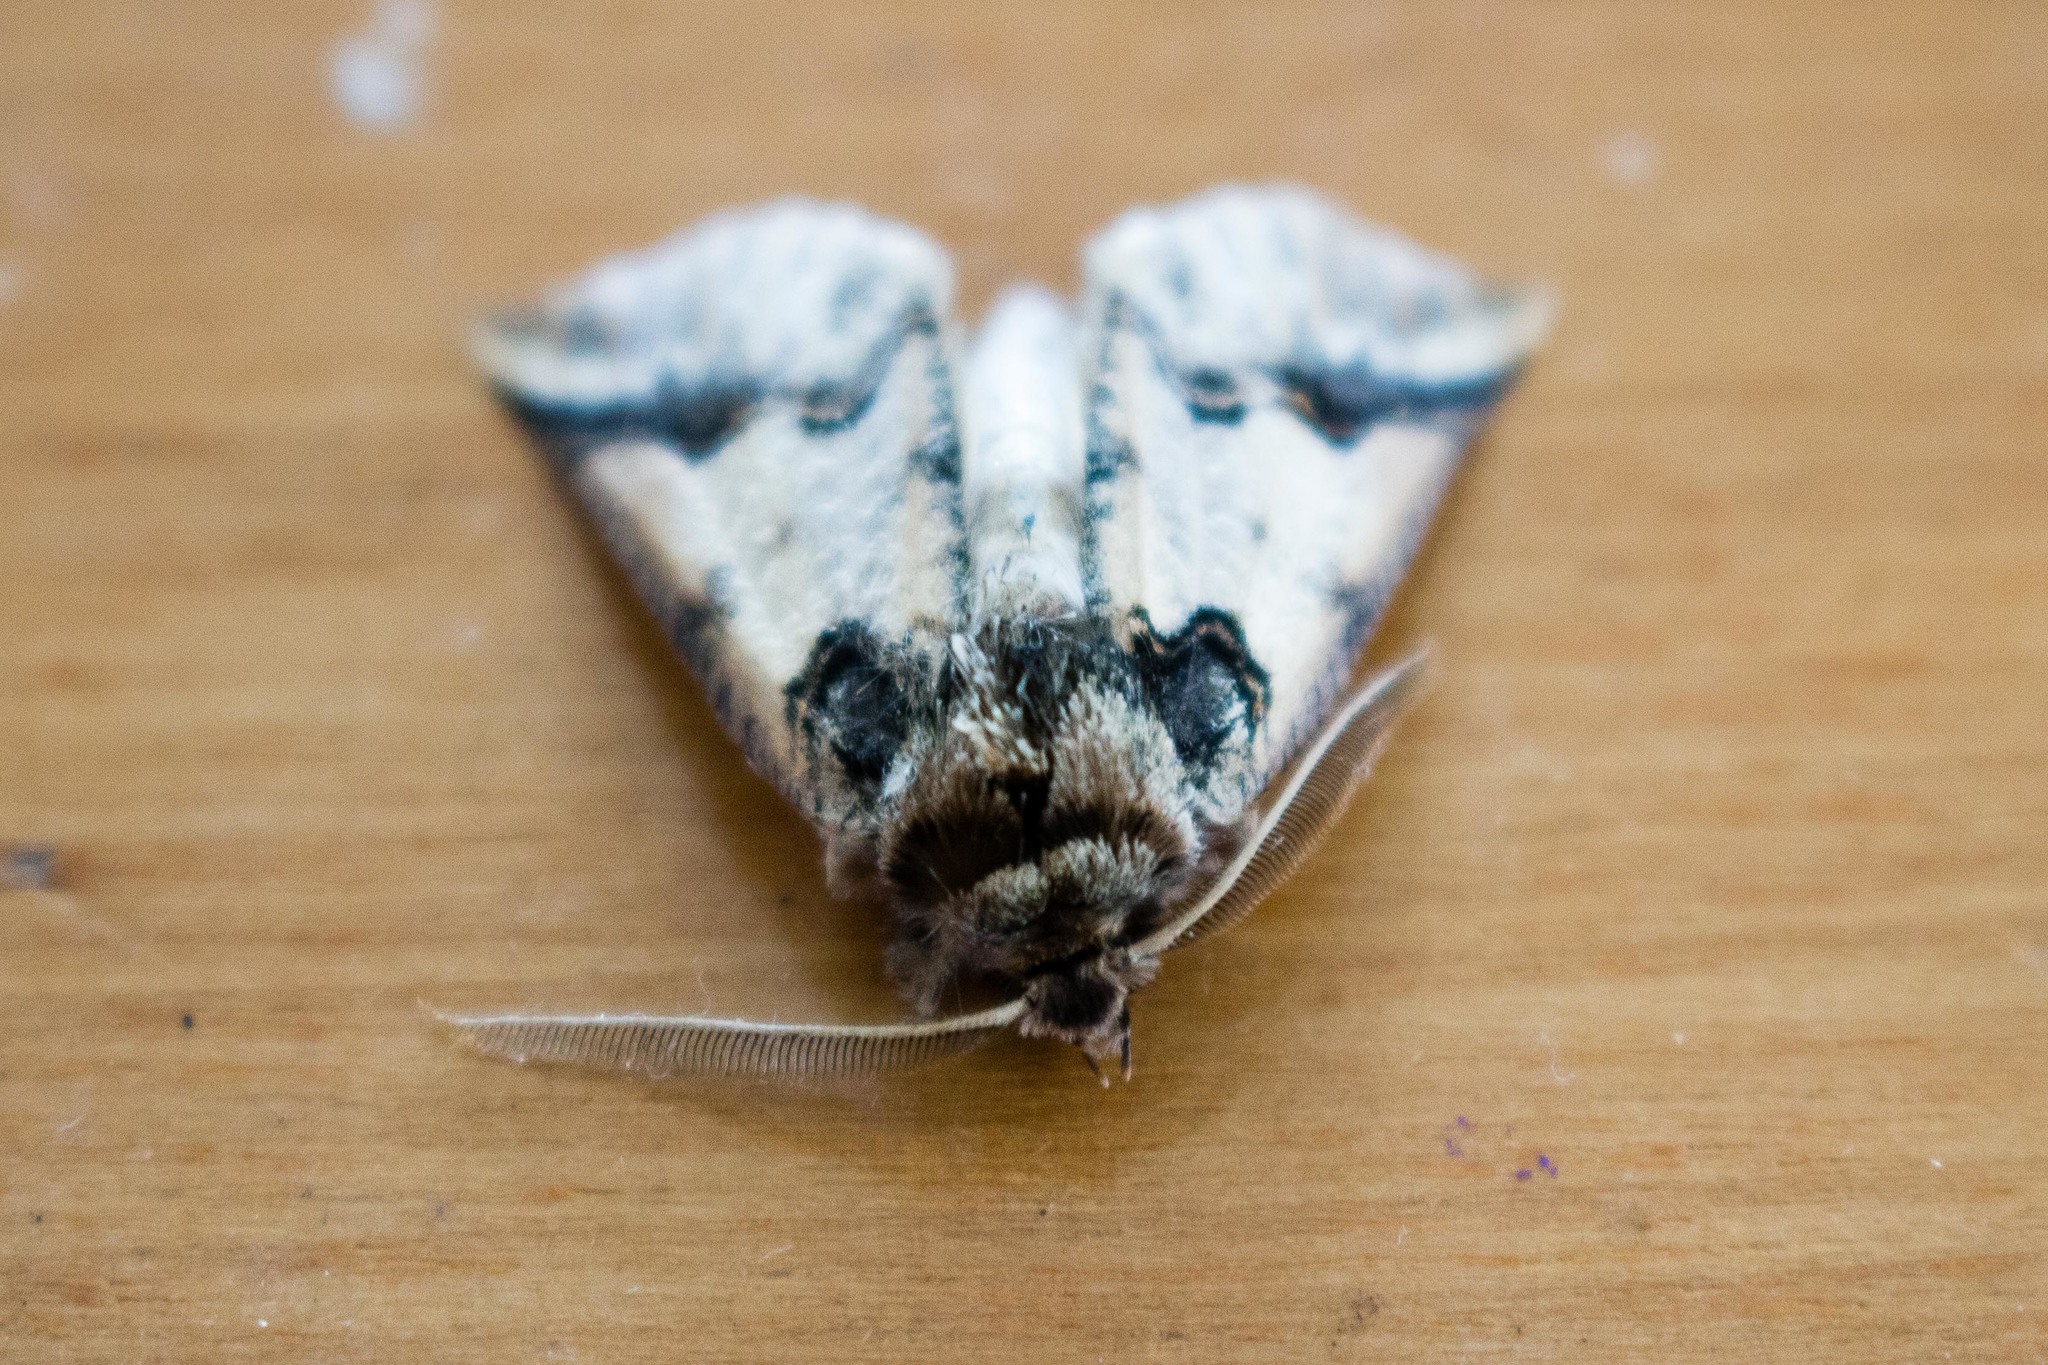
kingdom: Animalia
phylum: Arthropoda
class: Insecta
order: Lepidoptera
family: Geometridae
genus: Declana
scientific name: Declana
